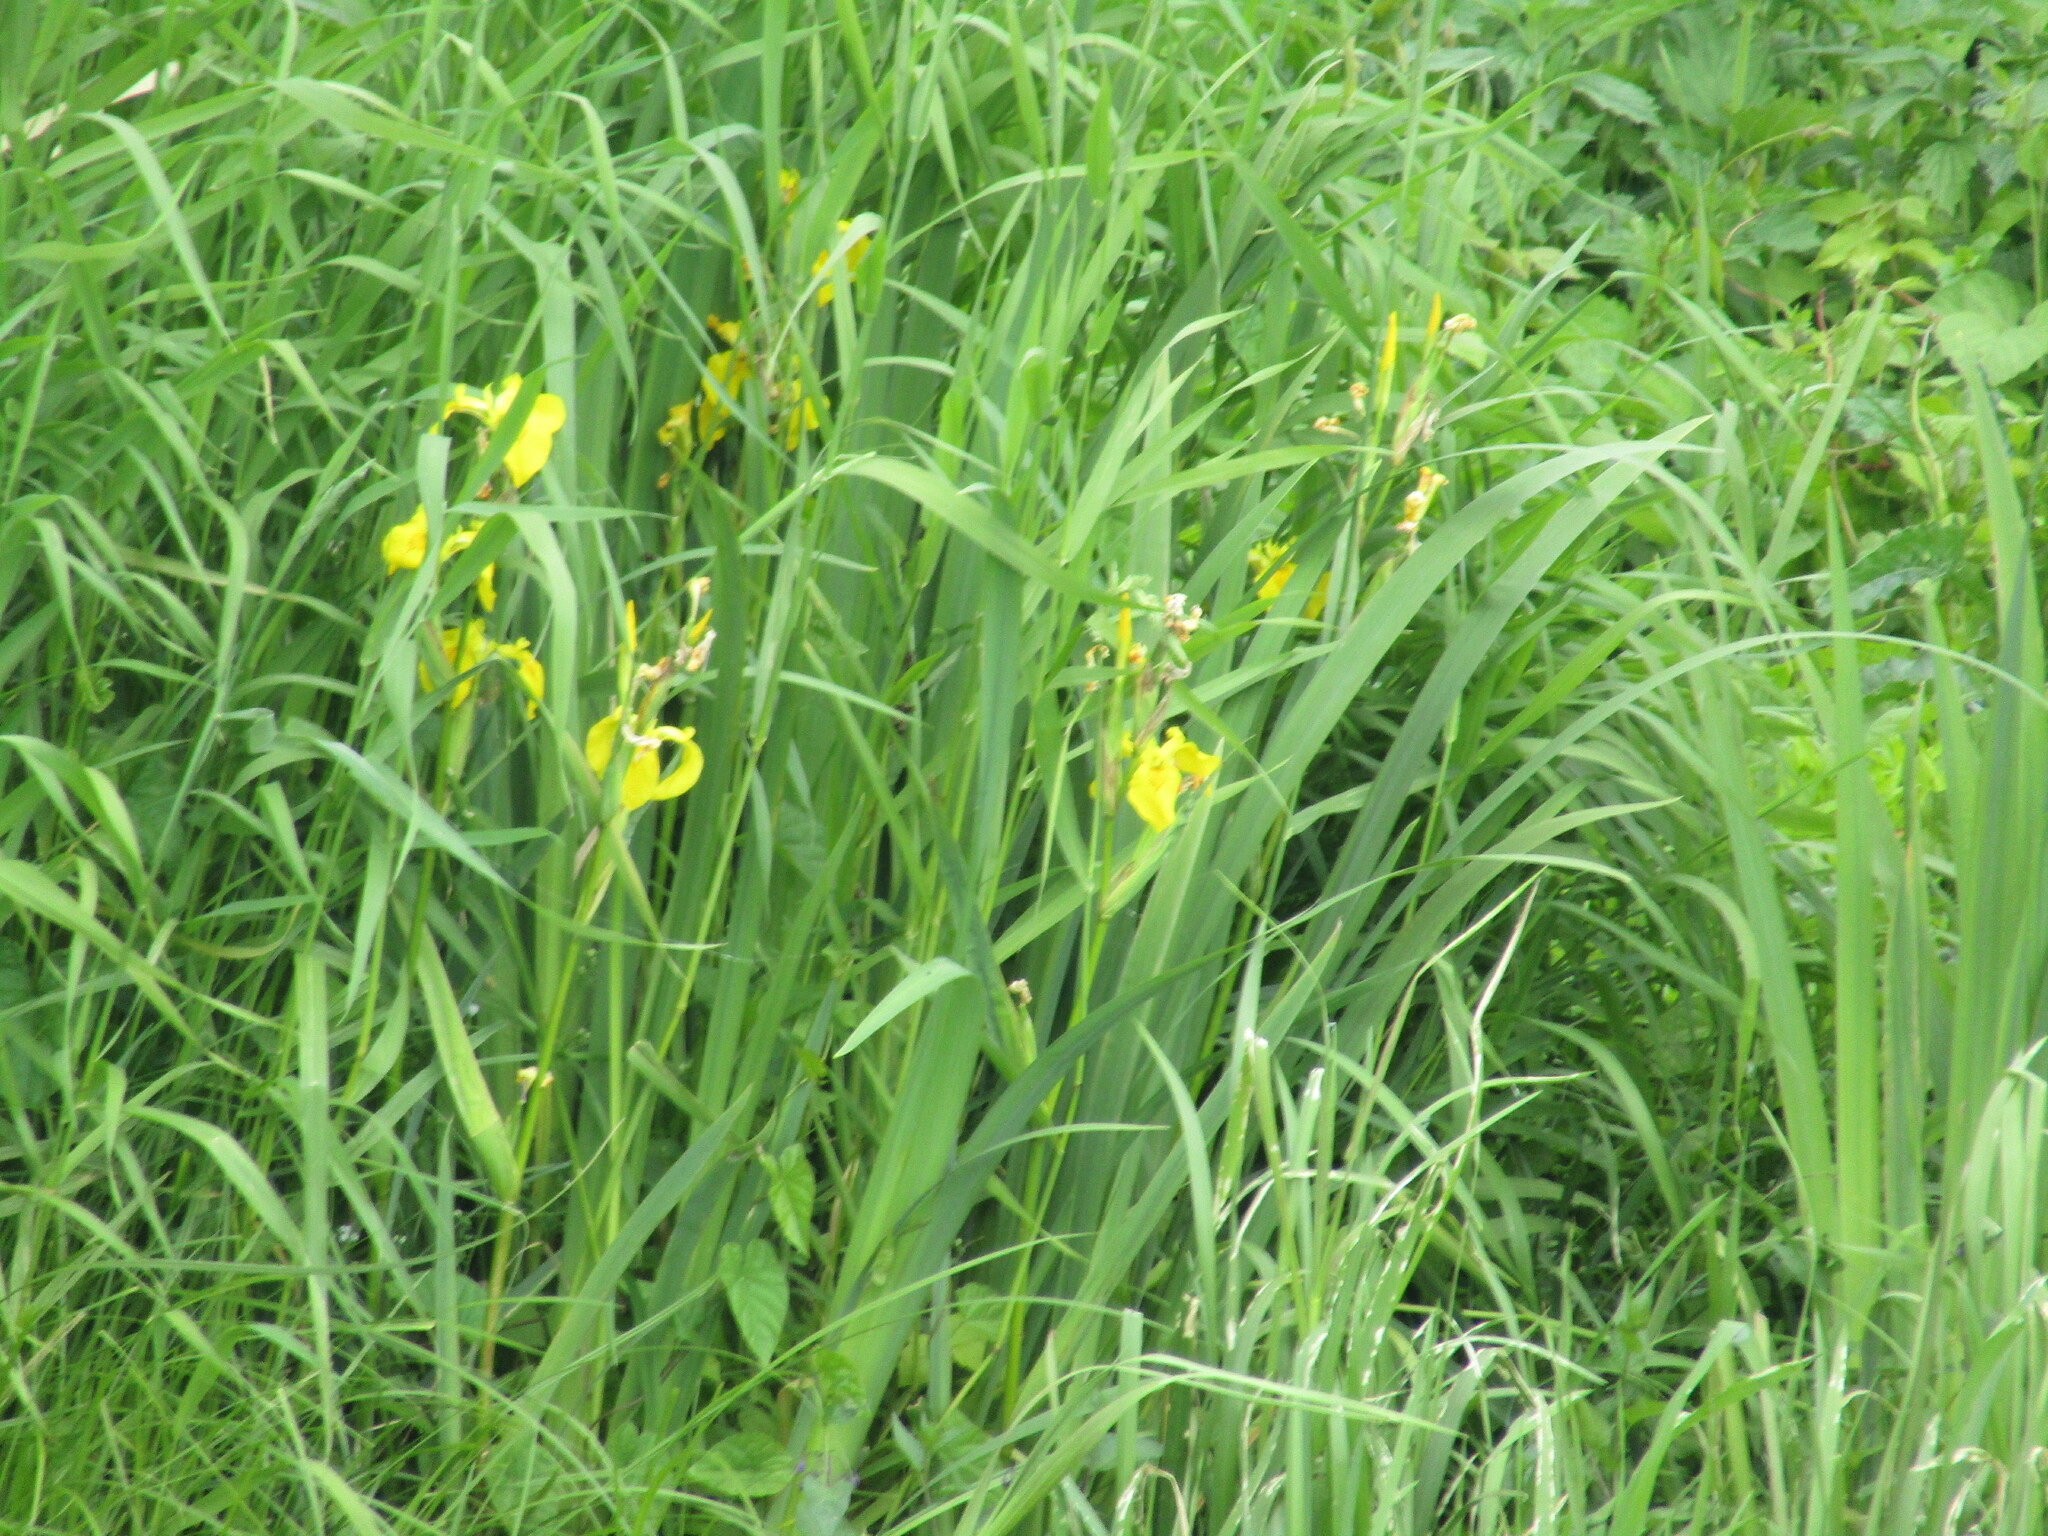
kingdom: Plantae
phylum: Tracheophyta
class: Liliopsida
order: Asparagales
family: Iridaceae
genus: Iris
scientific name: Iris pseudacorus
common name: Yellow flag
